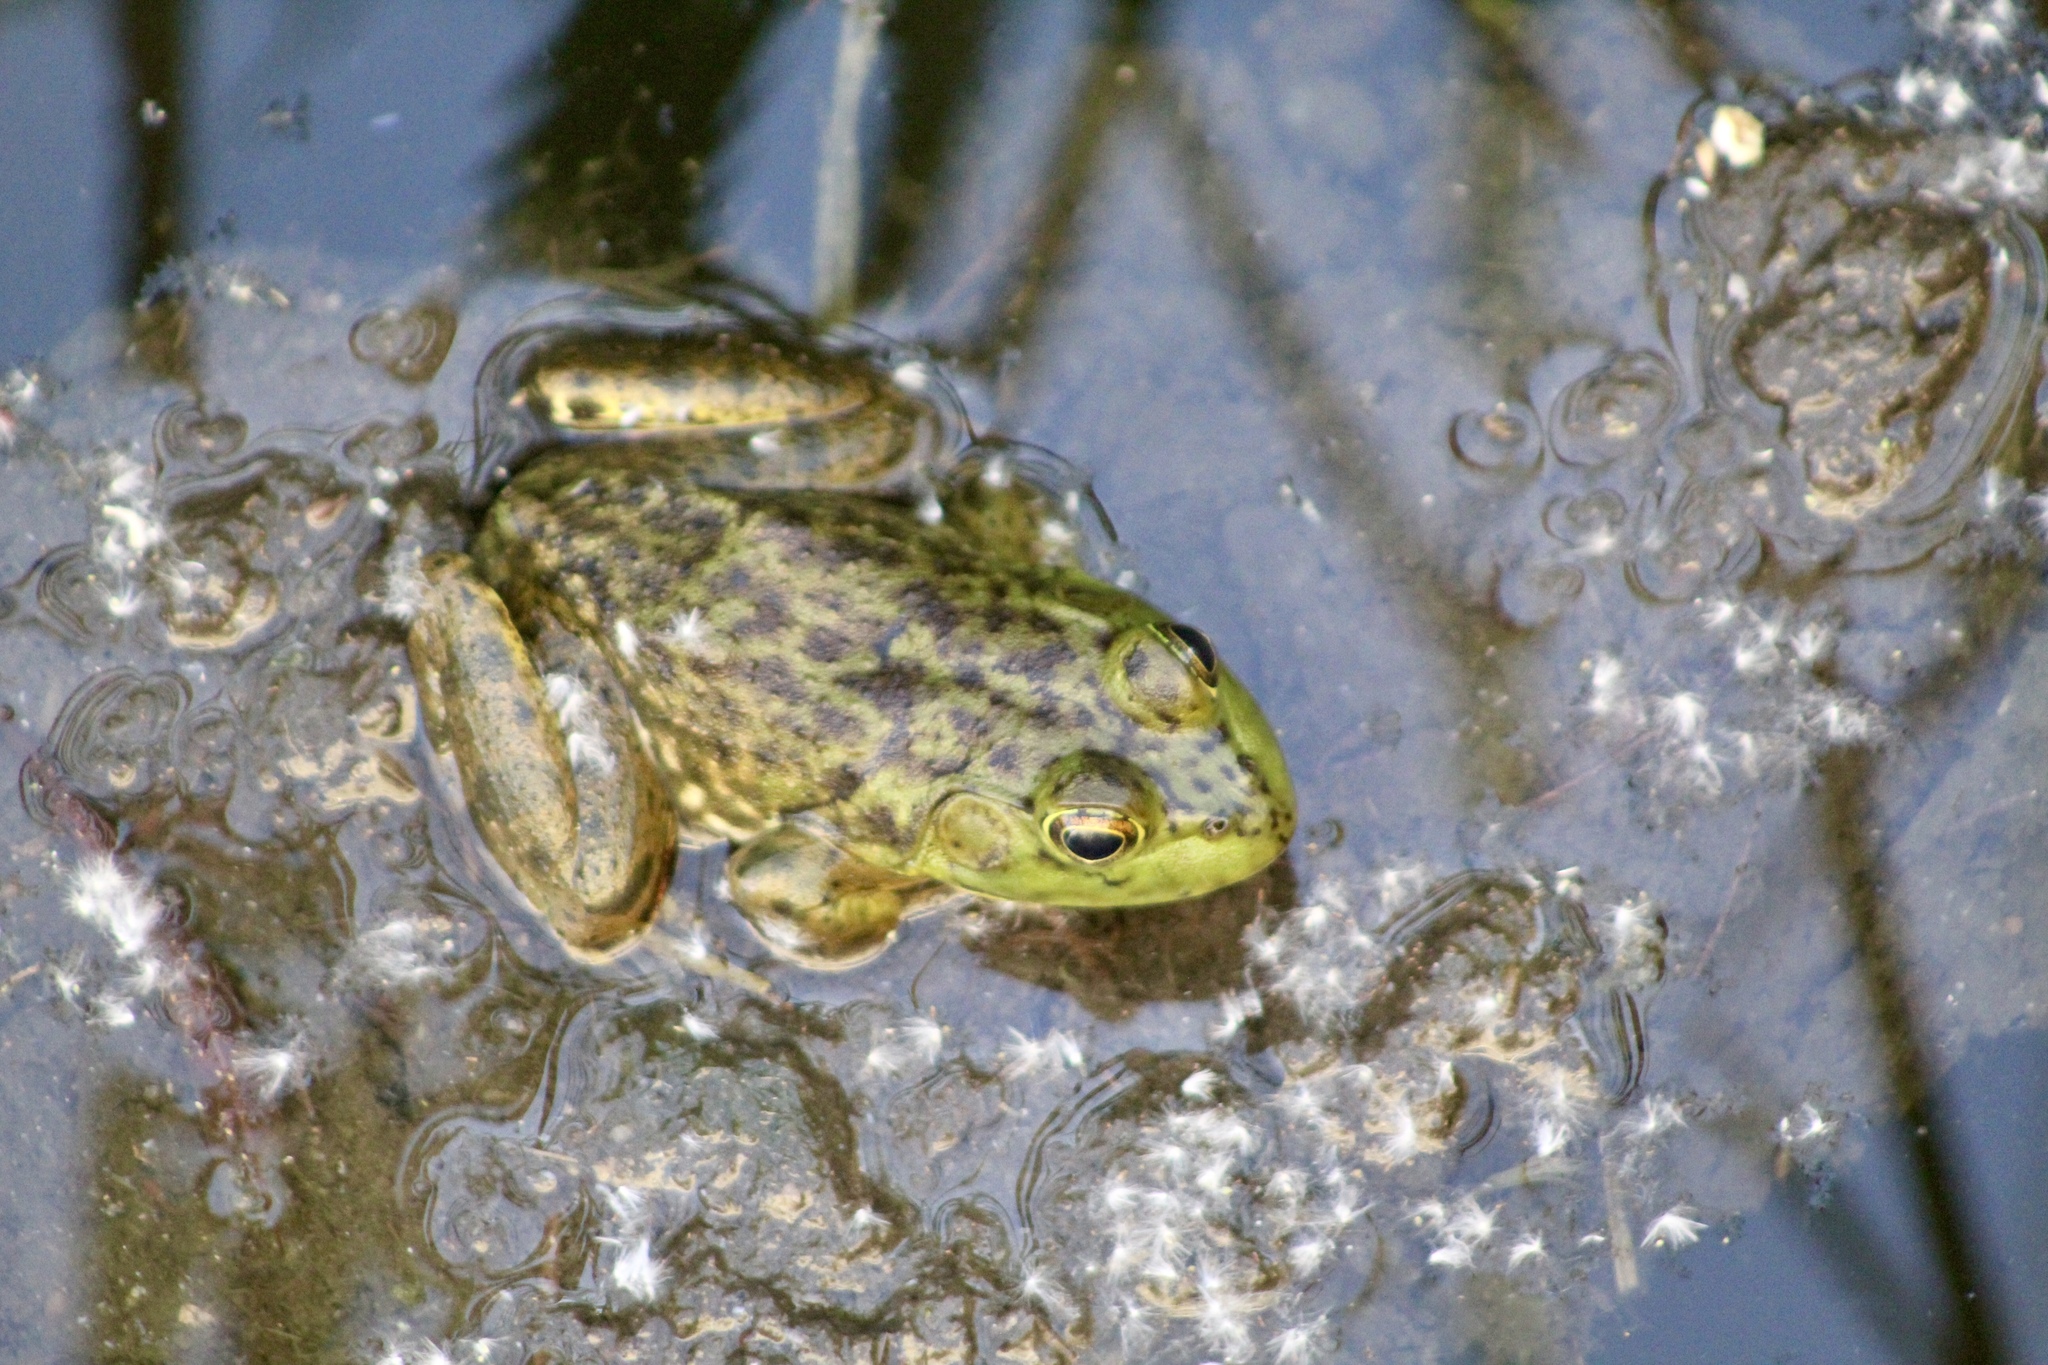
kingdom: Animalia
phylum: Chordata
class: Amphibia
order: Anura
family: Ranidae
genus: Lithobates
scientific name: Lithobates catesbeianus
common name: American bullfrog
